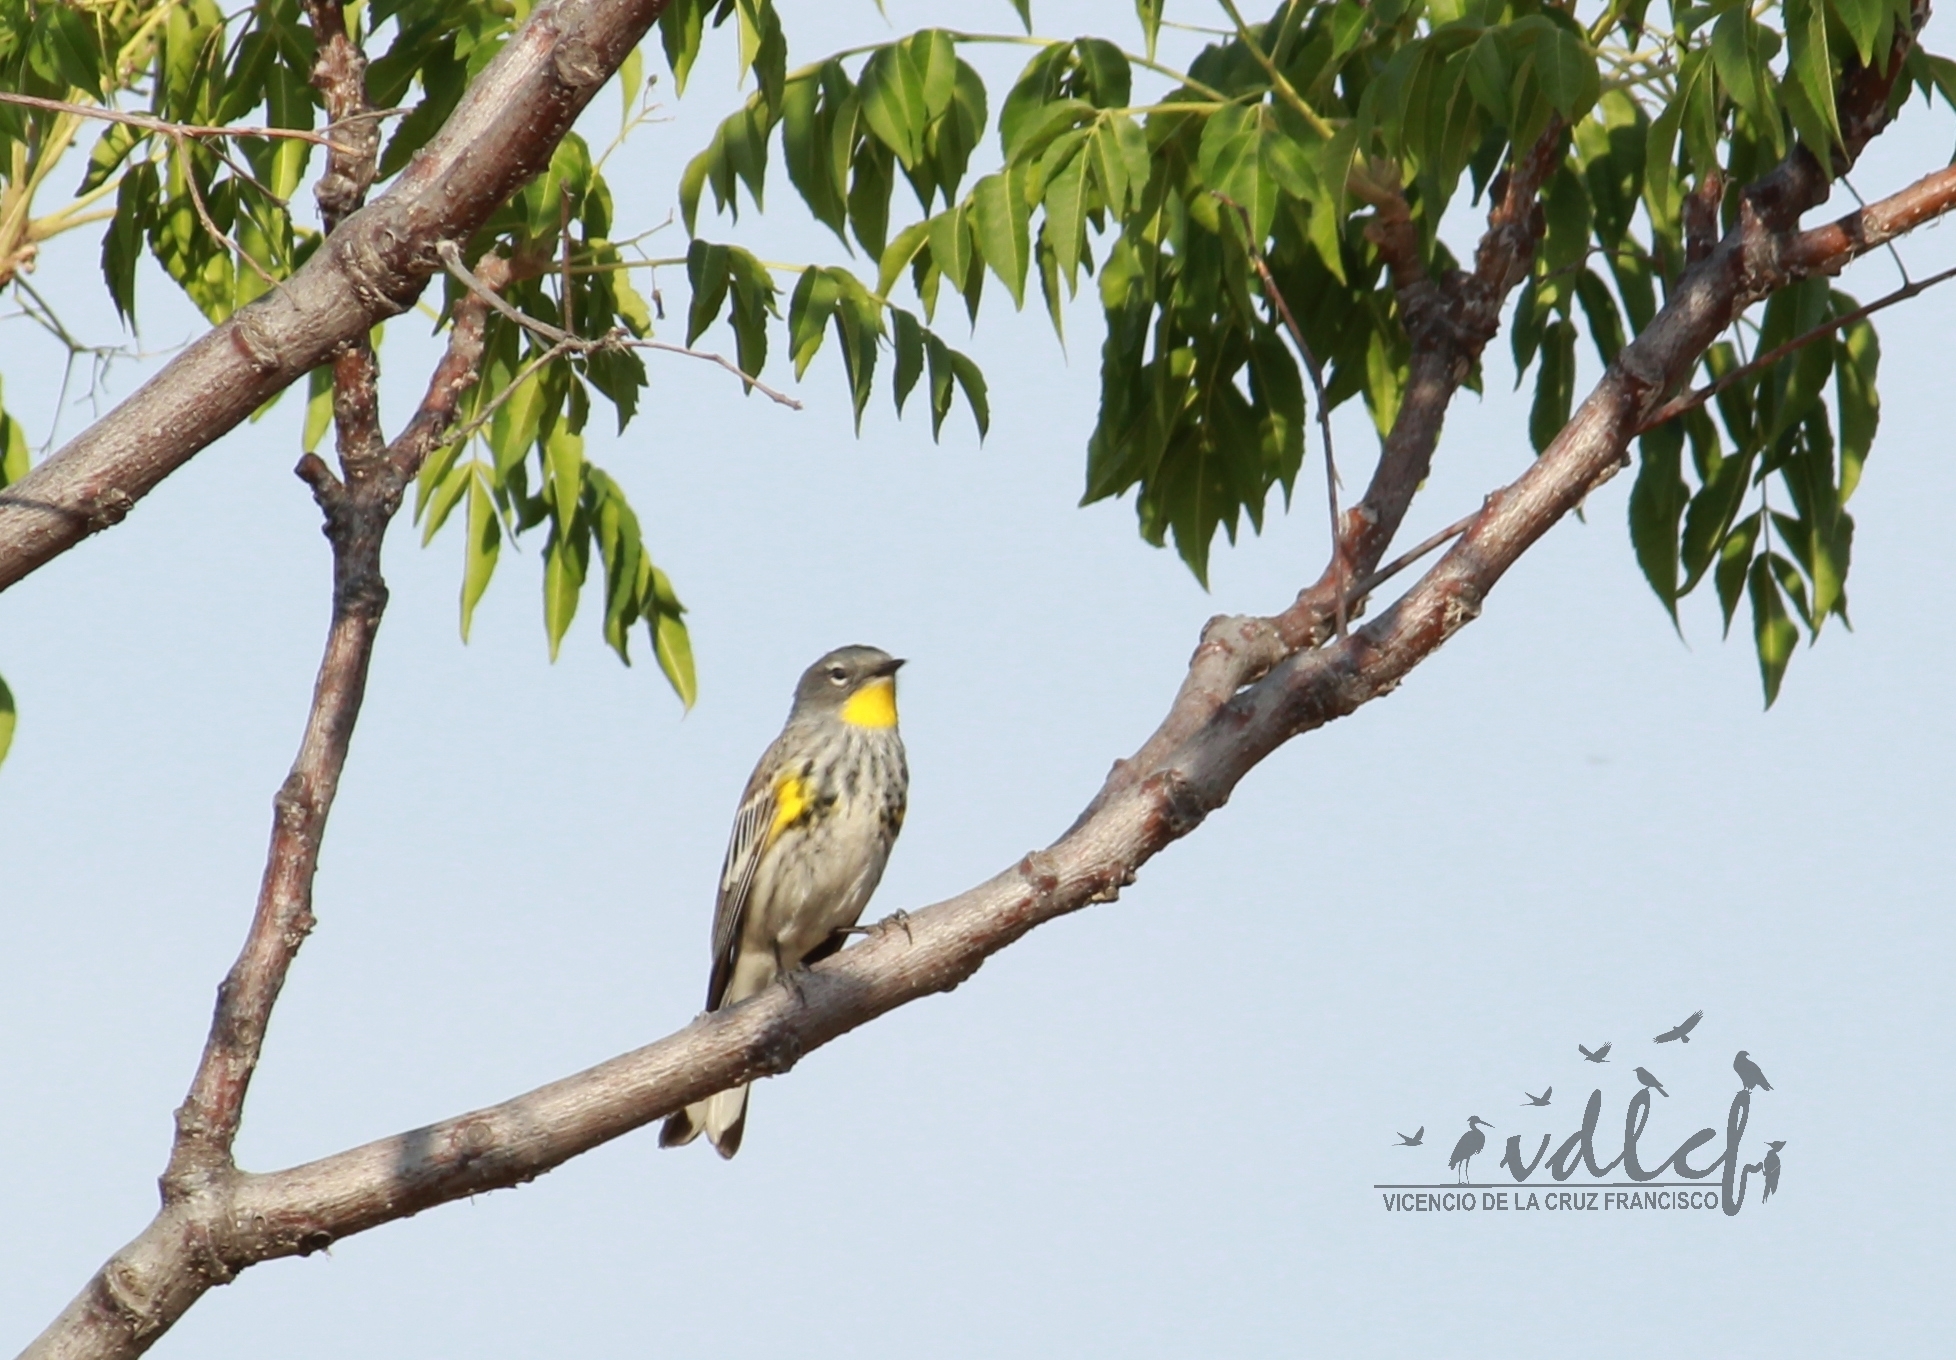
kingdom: Animalia
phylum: Chordata
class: Aves
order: Passeriformes
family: Parulidae
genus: Setophaga
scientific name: Setophaga coronata
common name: Myrtle warbler
